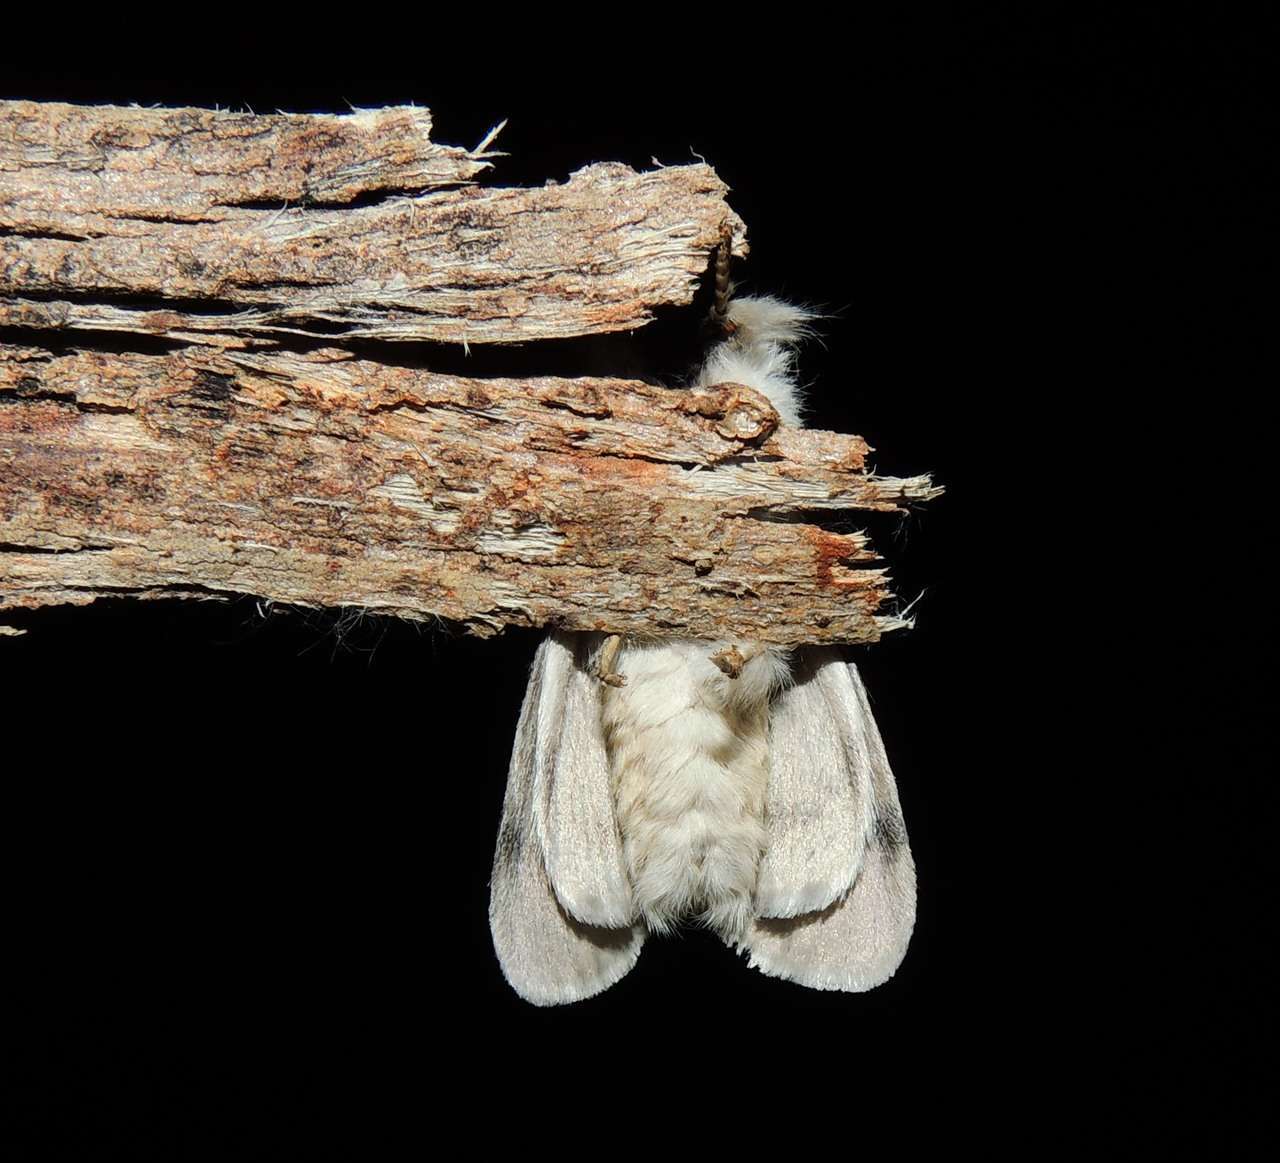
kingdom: Animalia
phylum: Arthropoda
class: Insecta
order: Lepidoptera
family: Erebidae
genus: Iropoca
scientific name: Iropoca rotundata
